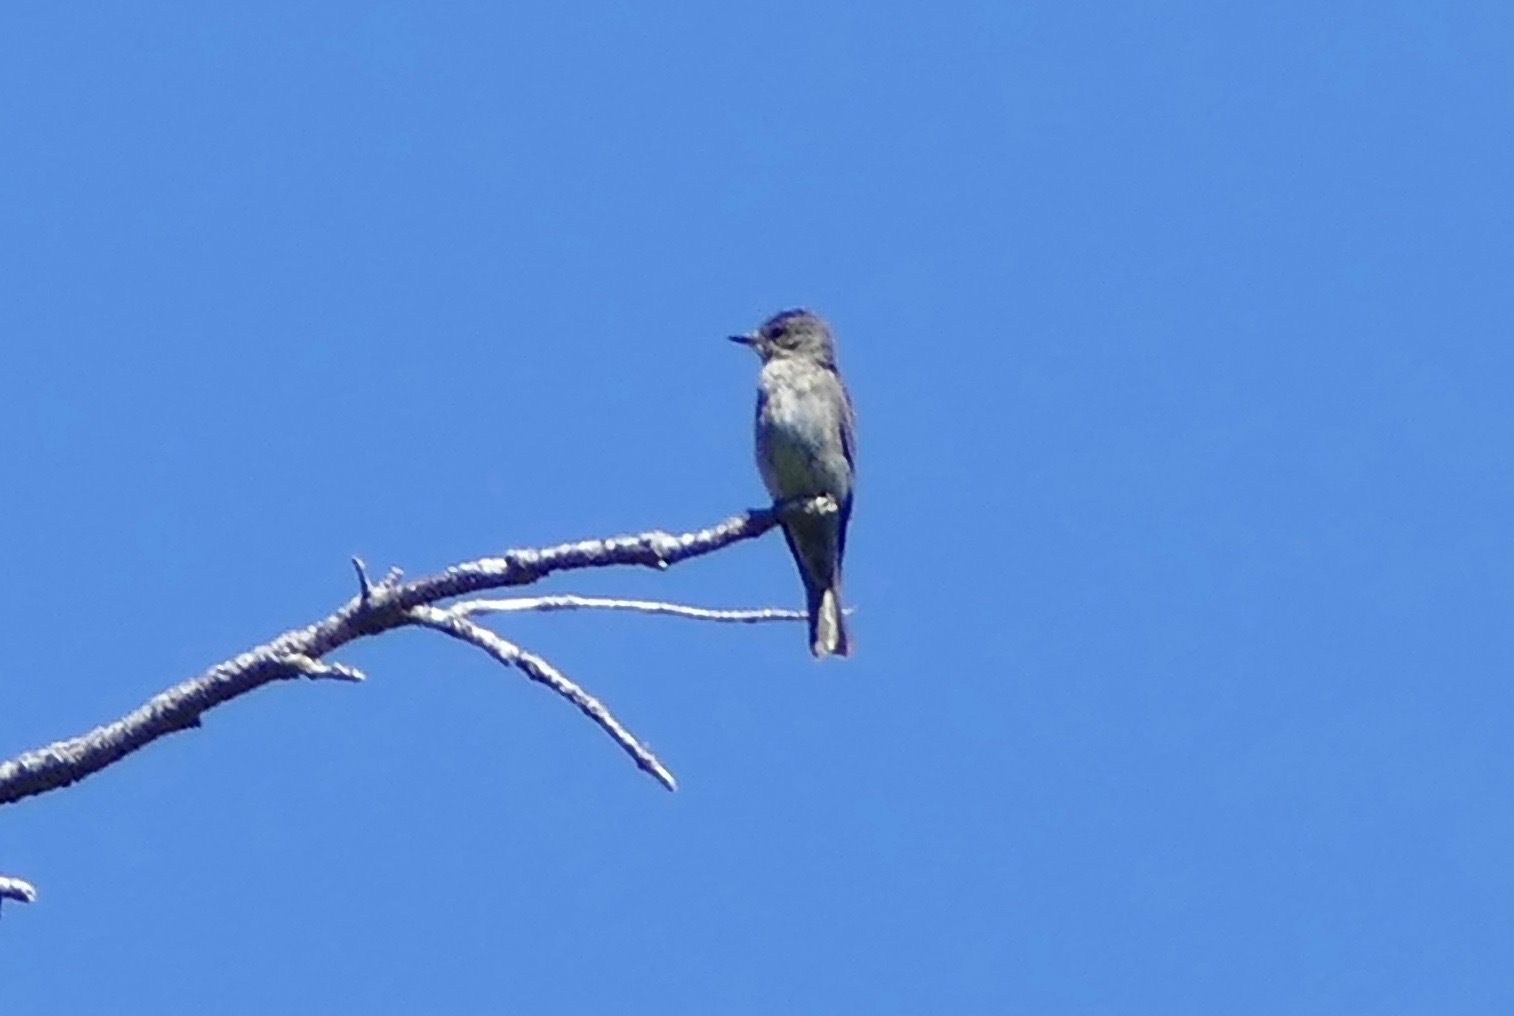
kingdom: Animalia
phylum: Chordata
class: Aves
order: Passeriformes
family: Tyrannidae
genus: Contopus
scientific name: Contopus sordidulus
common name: Western wood-pewee
